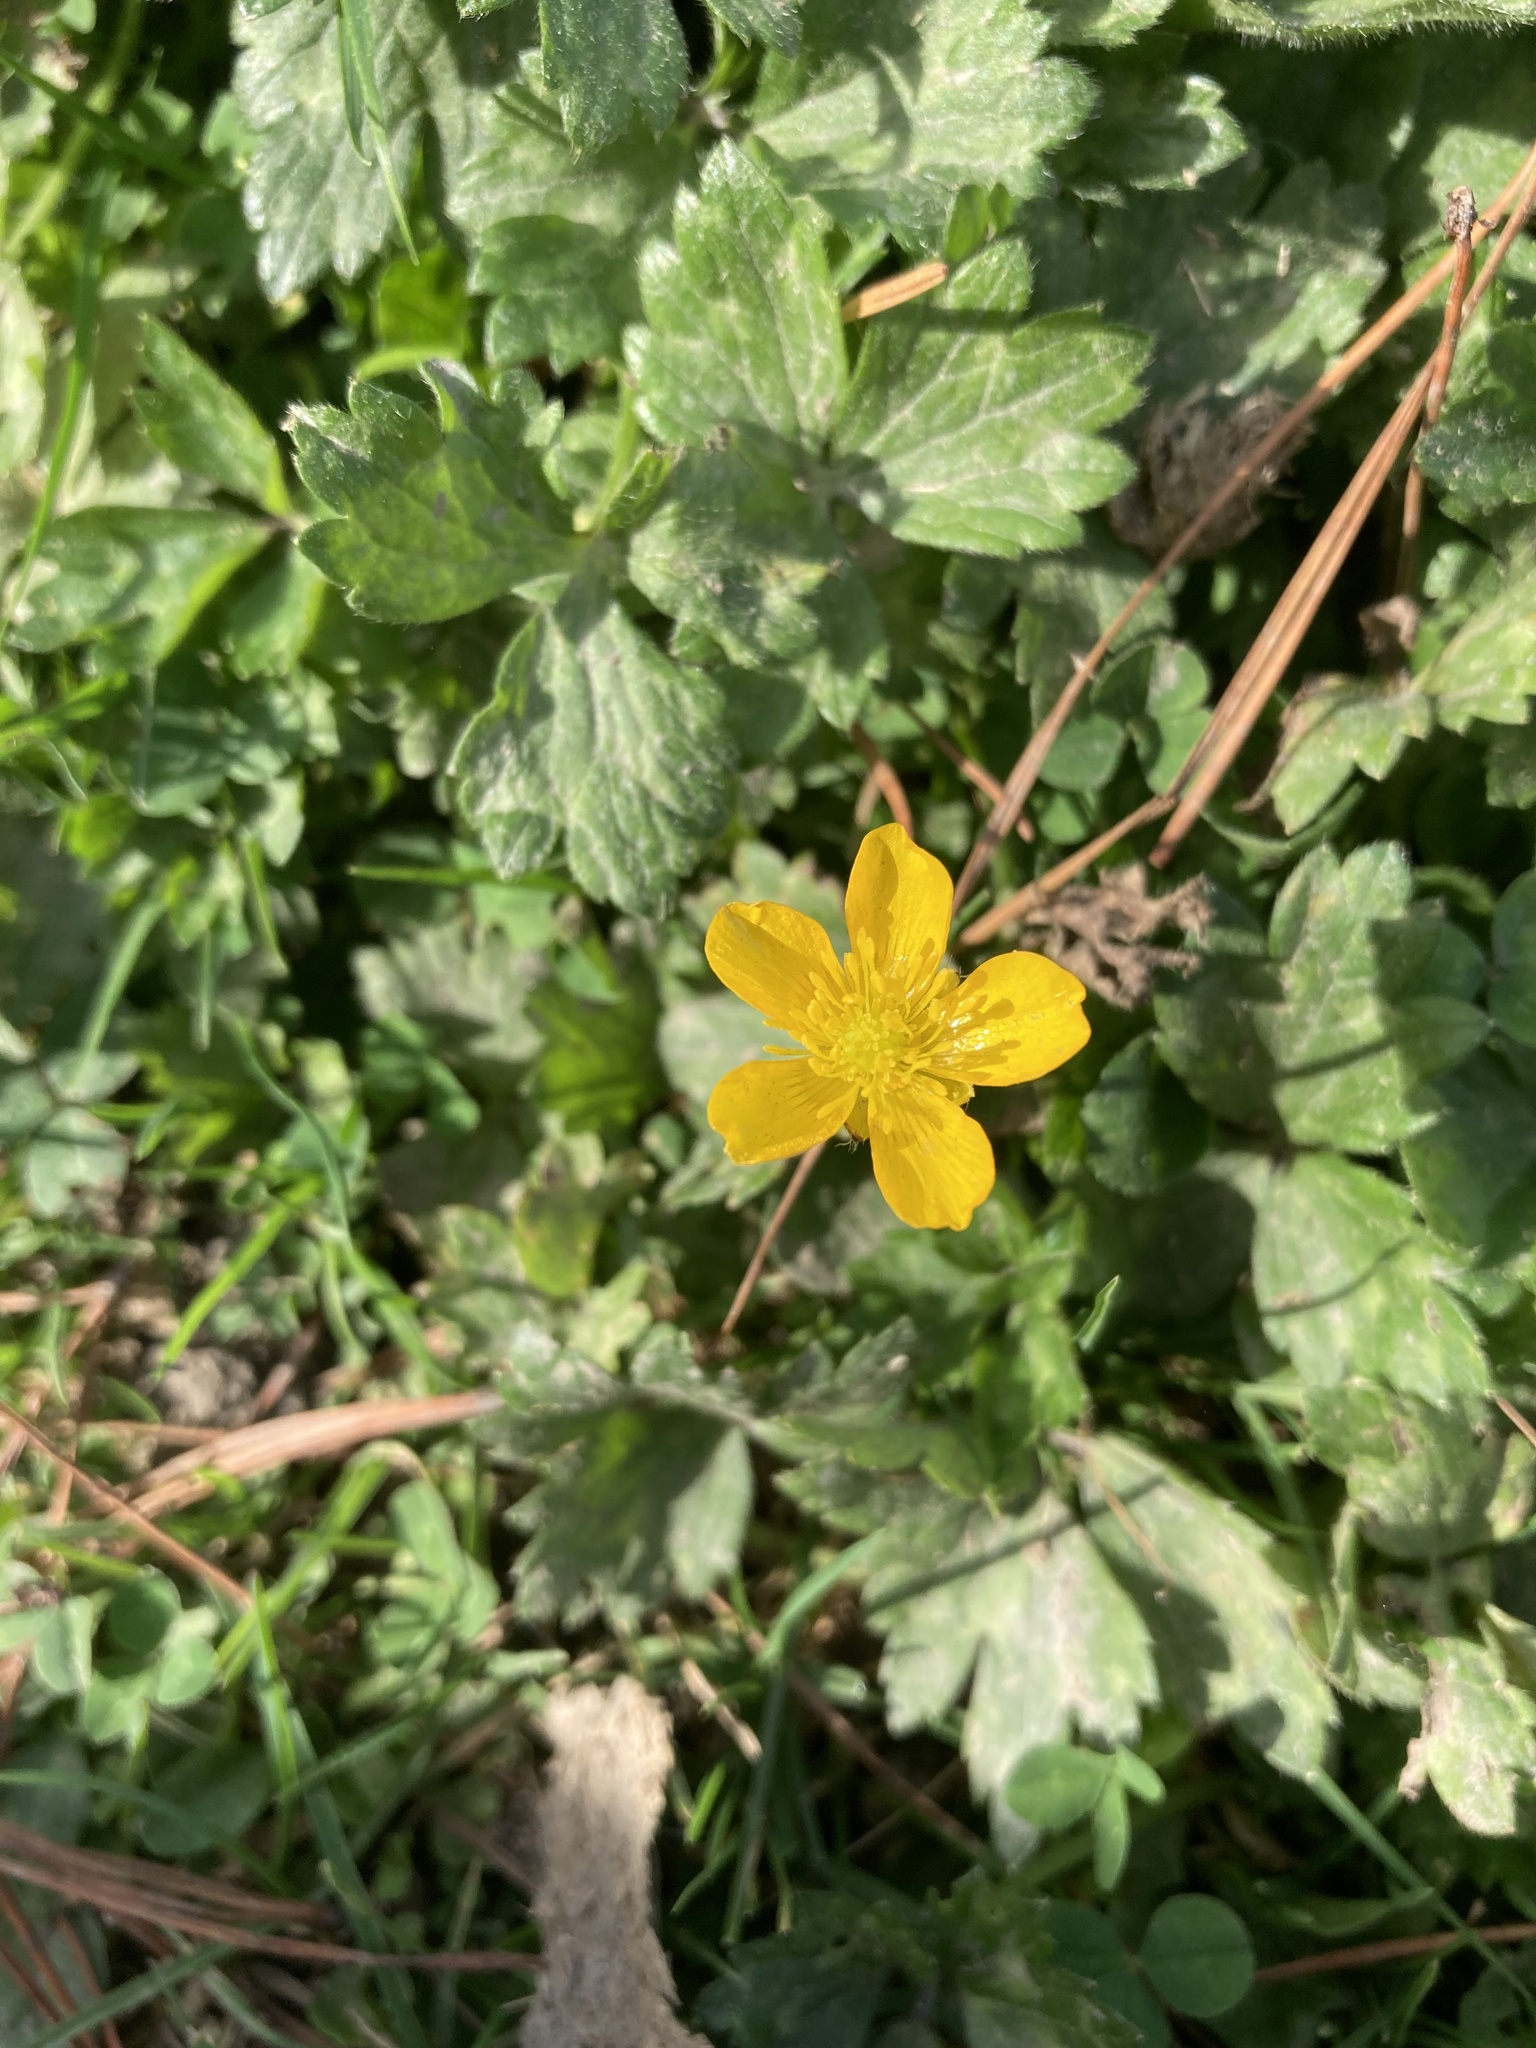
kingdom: Plantae
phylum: Tracheophyta
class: Magnoliopsida
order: Ranunculales
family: Ranunculaceae
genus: Ranunculus
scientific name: Ranunculus repens
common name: Creeping buttercup
